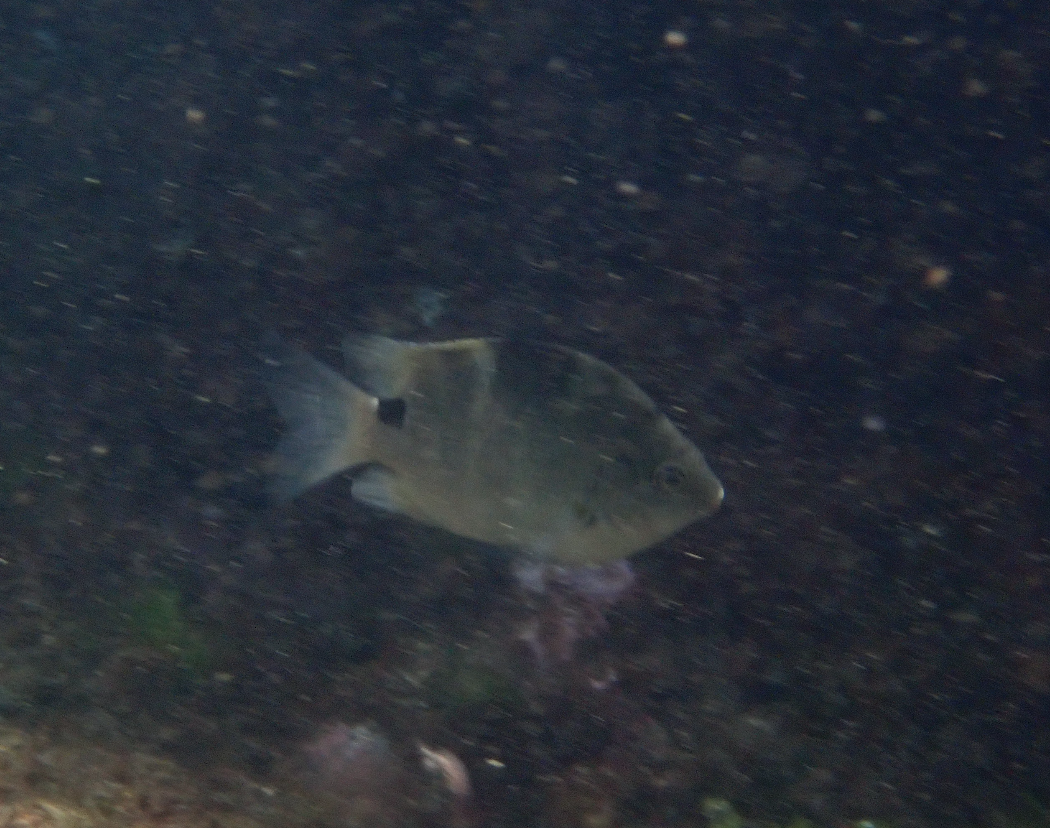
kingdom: Animalia
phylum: Chordata
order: Perciformes
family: Pomacentridae
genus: Abudefduf
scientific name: Abudefduf sordidus
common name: Blackspot sergeant
